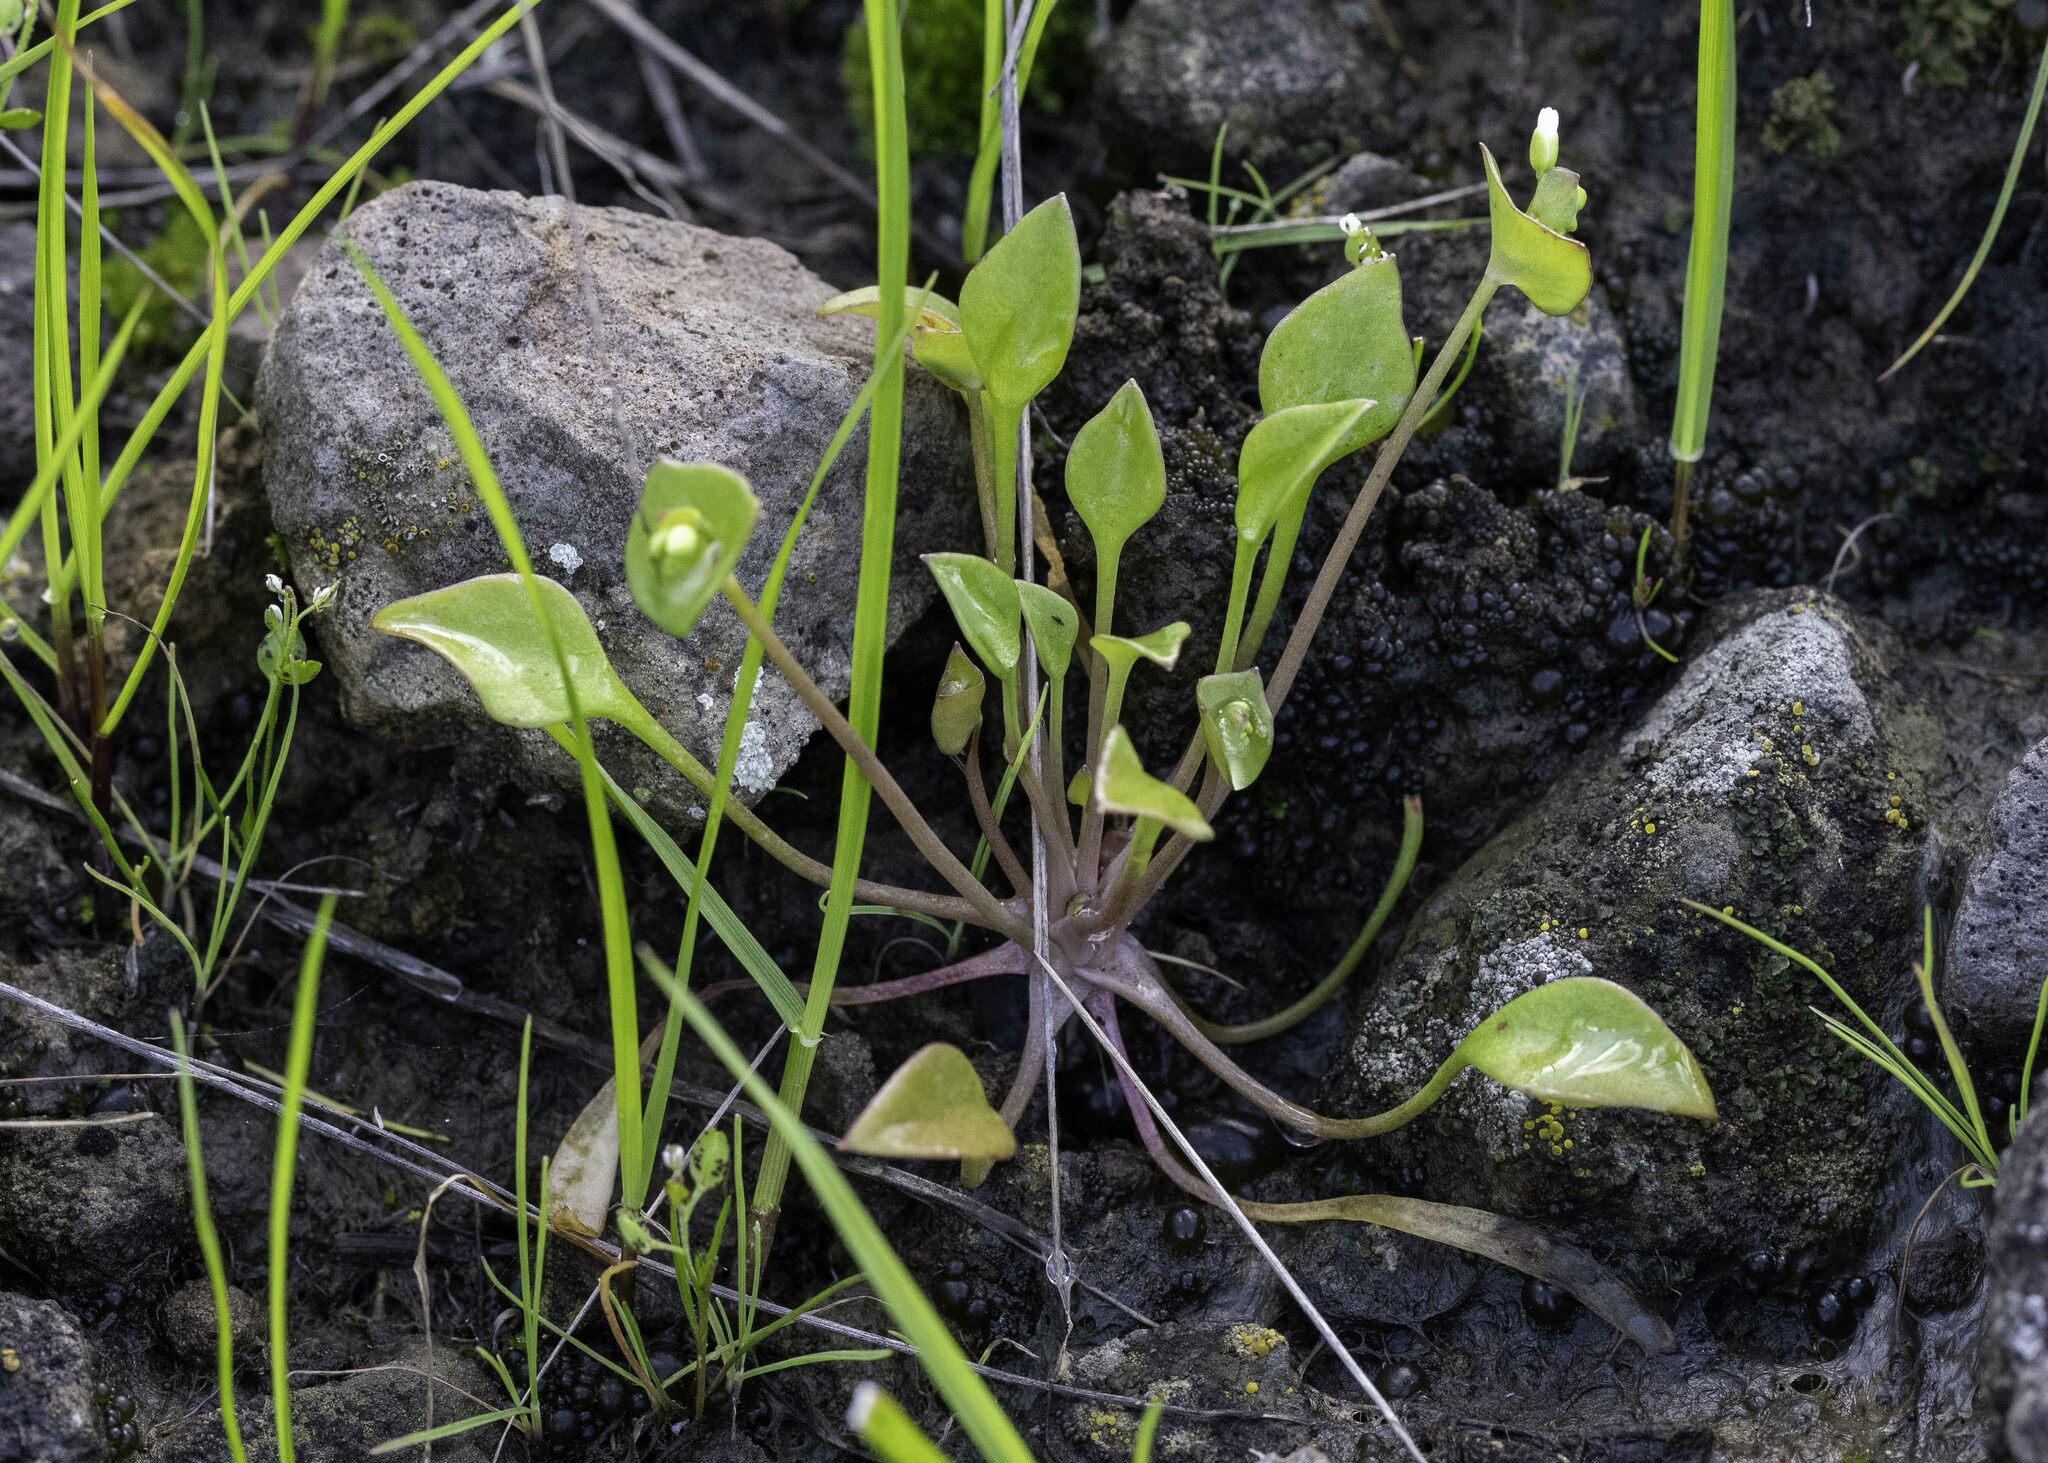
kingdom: Plantae
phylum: Tracheophyta
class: Magnoliopsida
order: Caryophyllales
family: Montiaceae
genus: Claytonia
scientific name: Claytonia perfoliata
